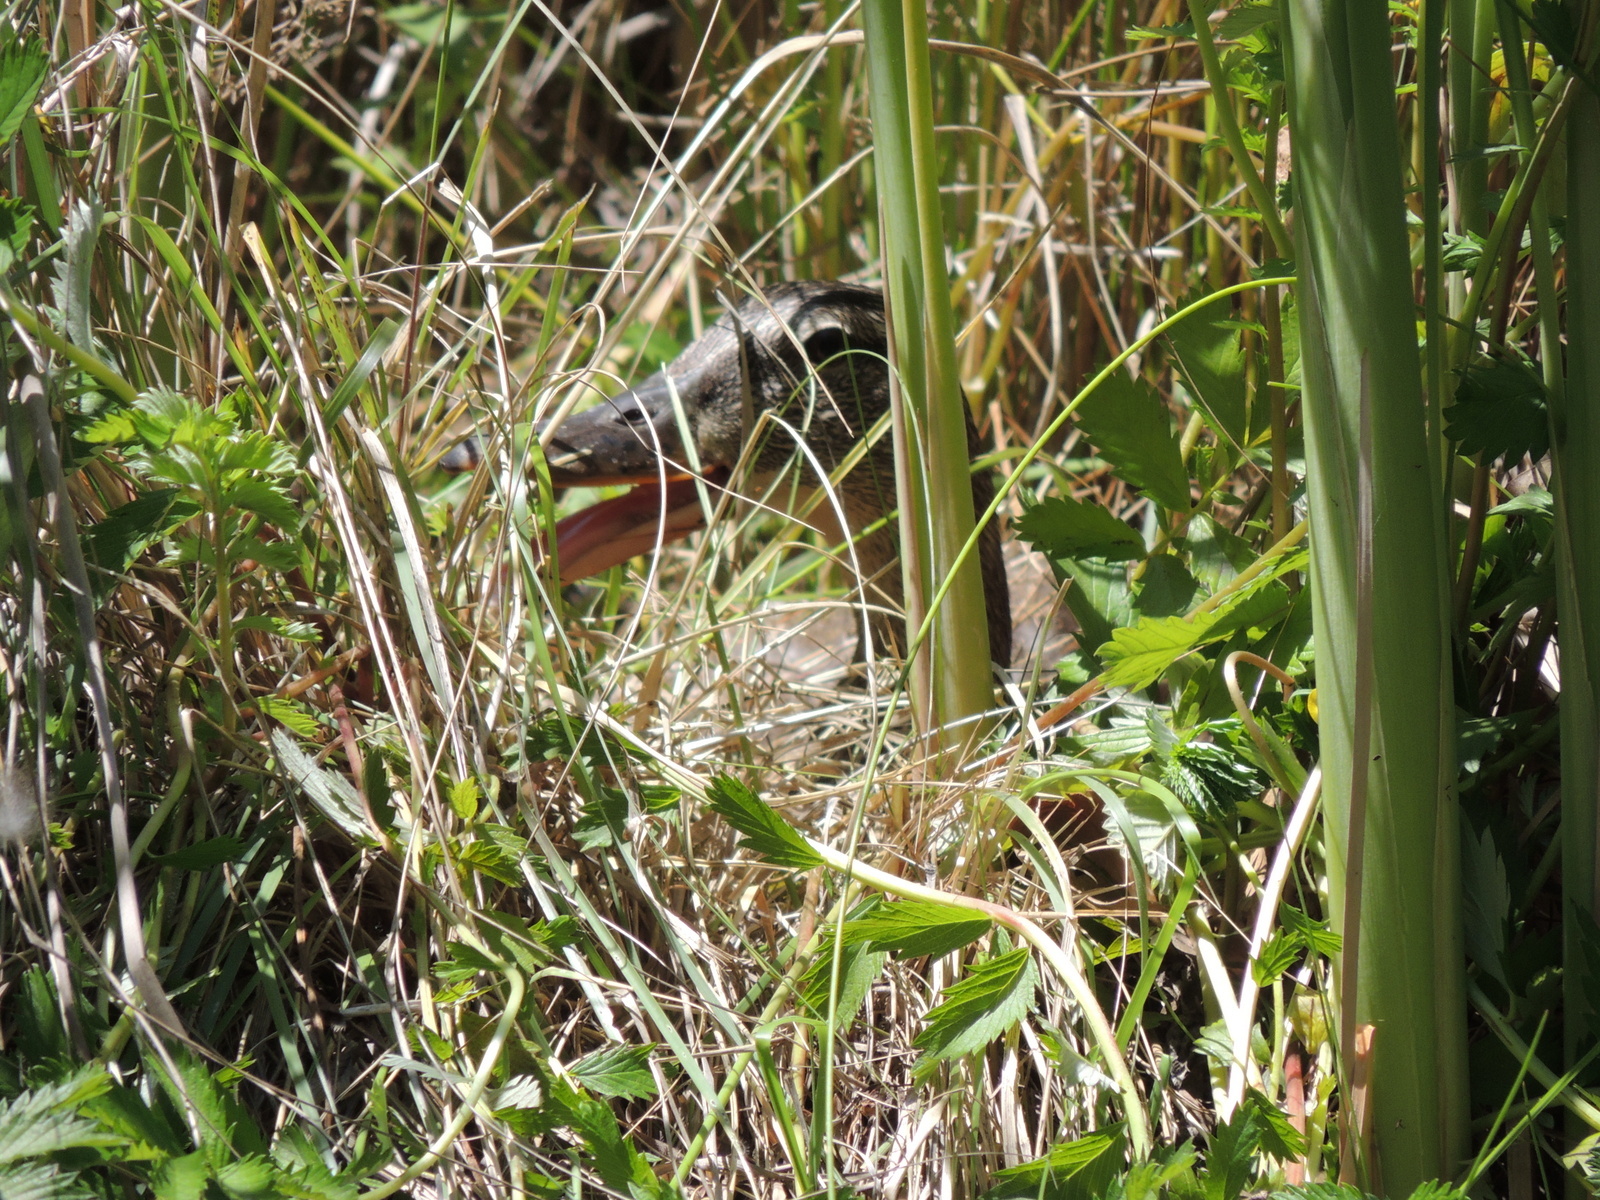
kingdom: Animalia
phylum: Chordata
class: Aves
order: Anseriformes
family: Anatidae
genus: Anas
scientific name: Anas platyrhynchos
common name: Mallard
